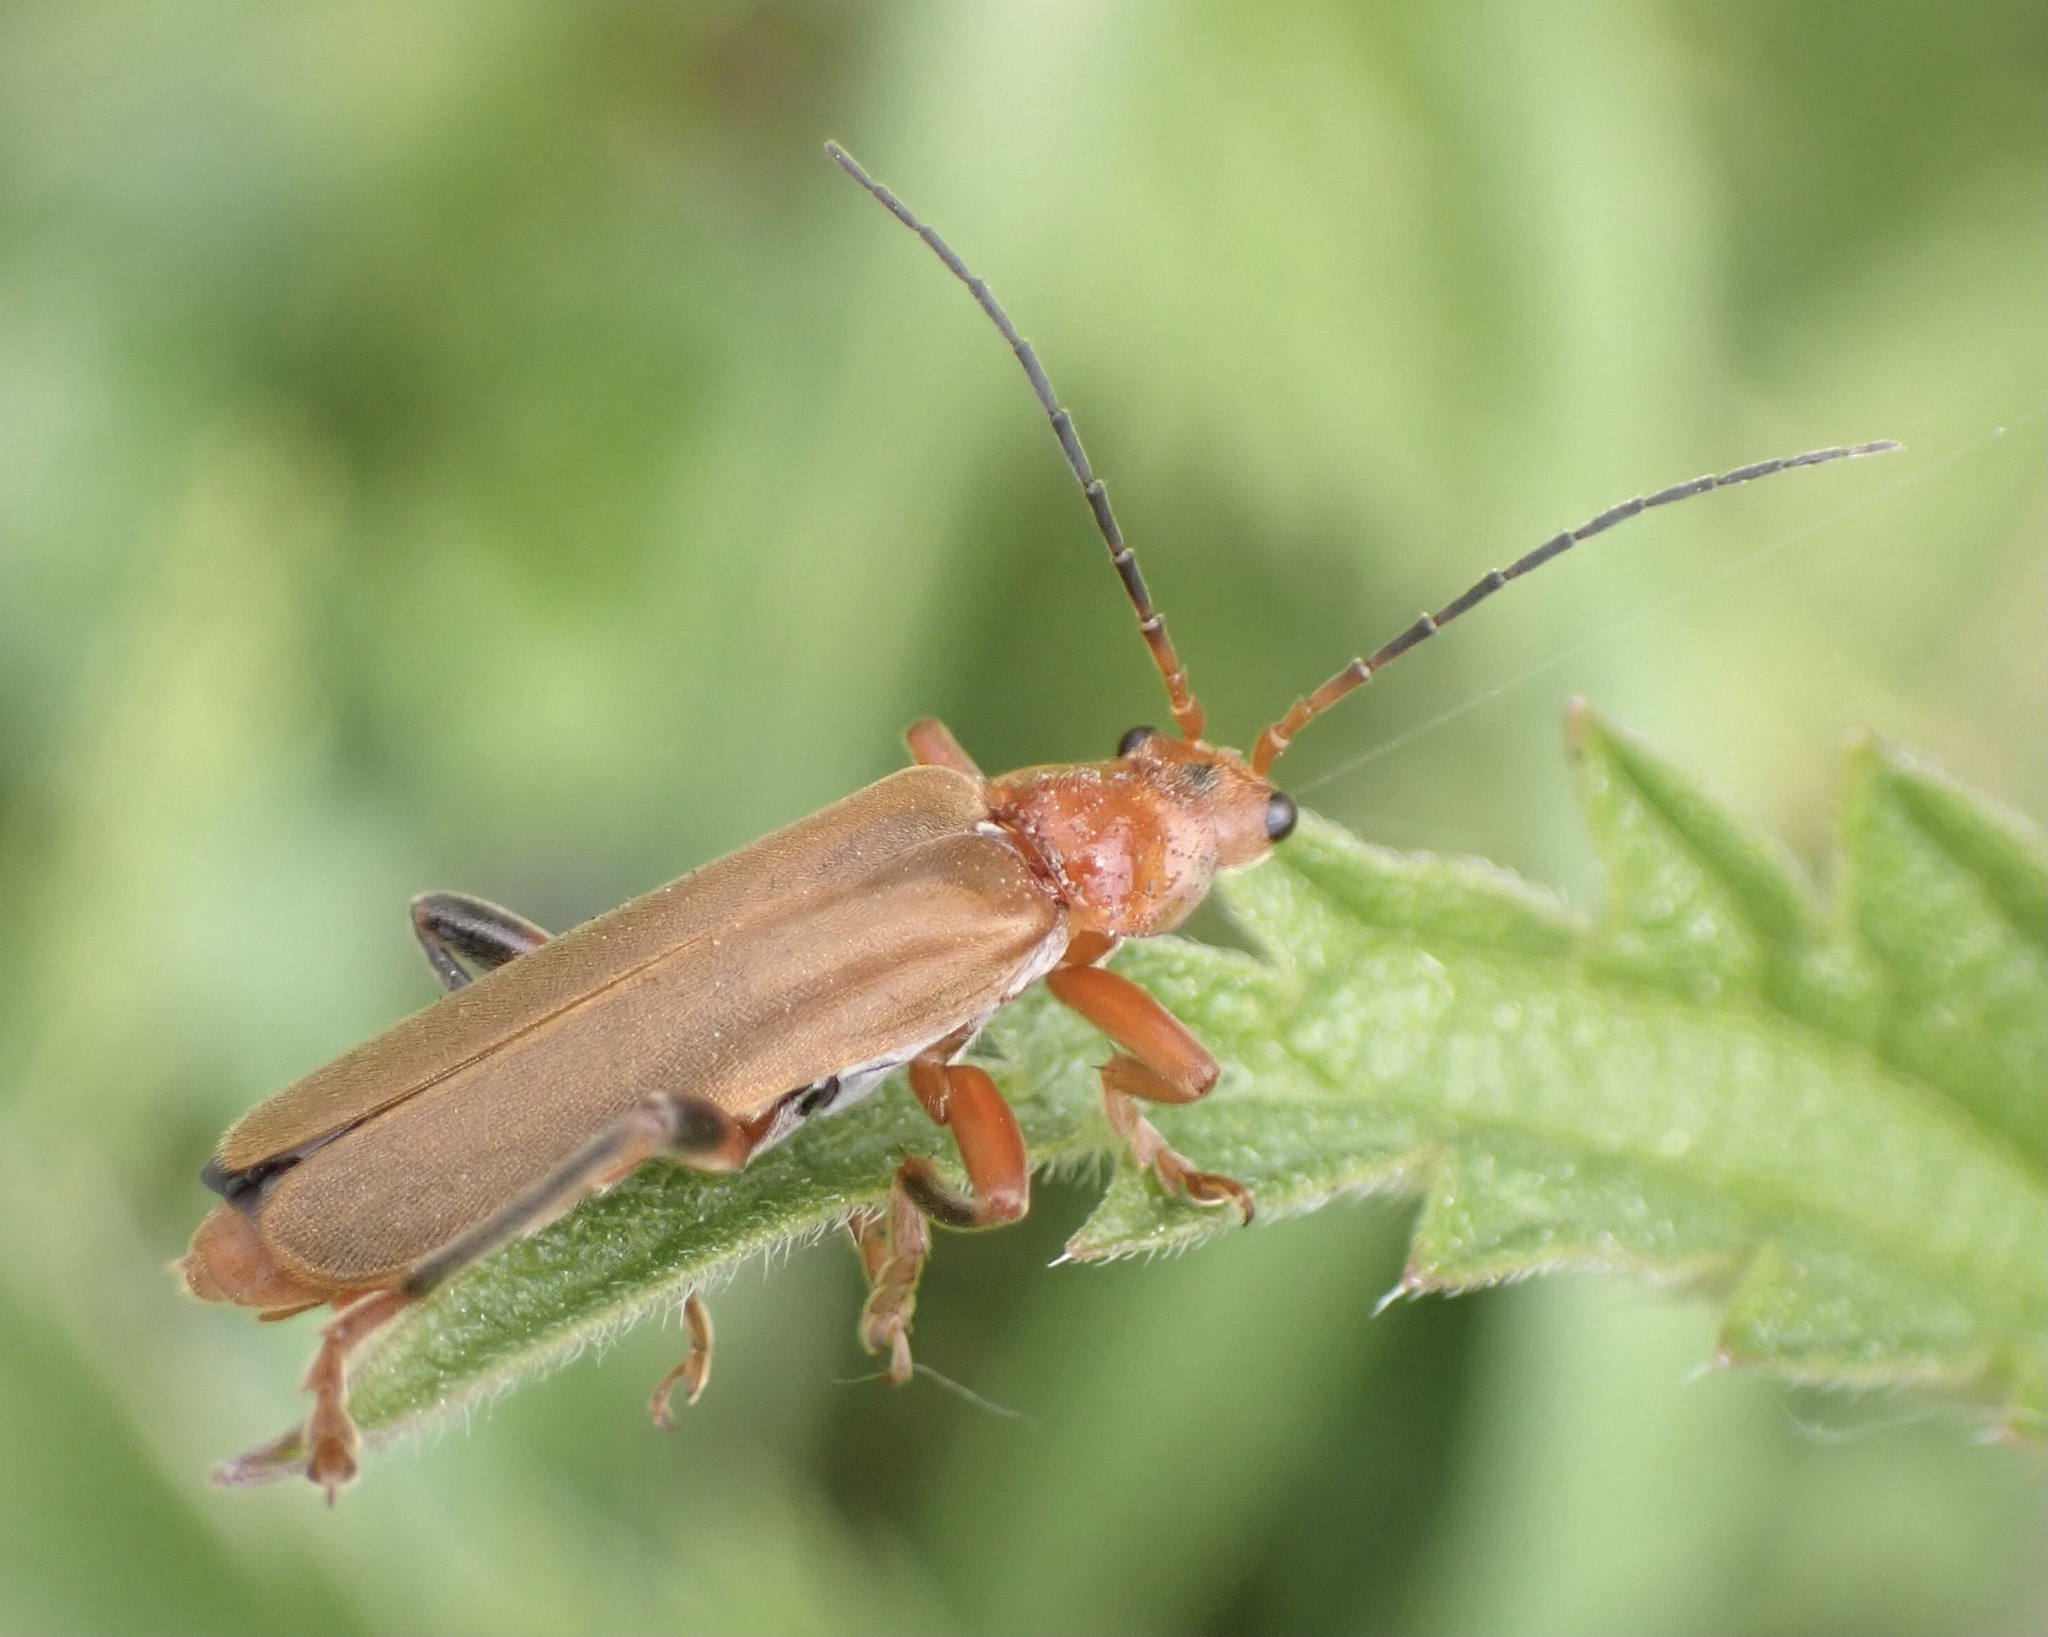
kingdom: Animalia
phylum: Arthropoda
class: Insecta
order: Coleoptera
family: Cantharidae
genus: Cantharis
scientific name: Cantharis livida
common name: Livid soldier beetle
